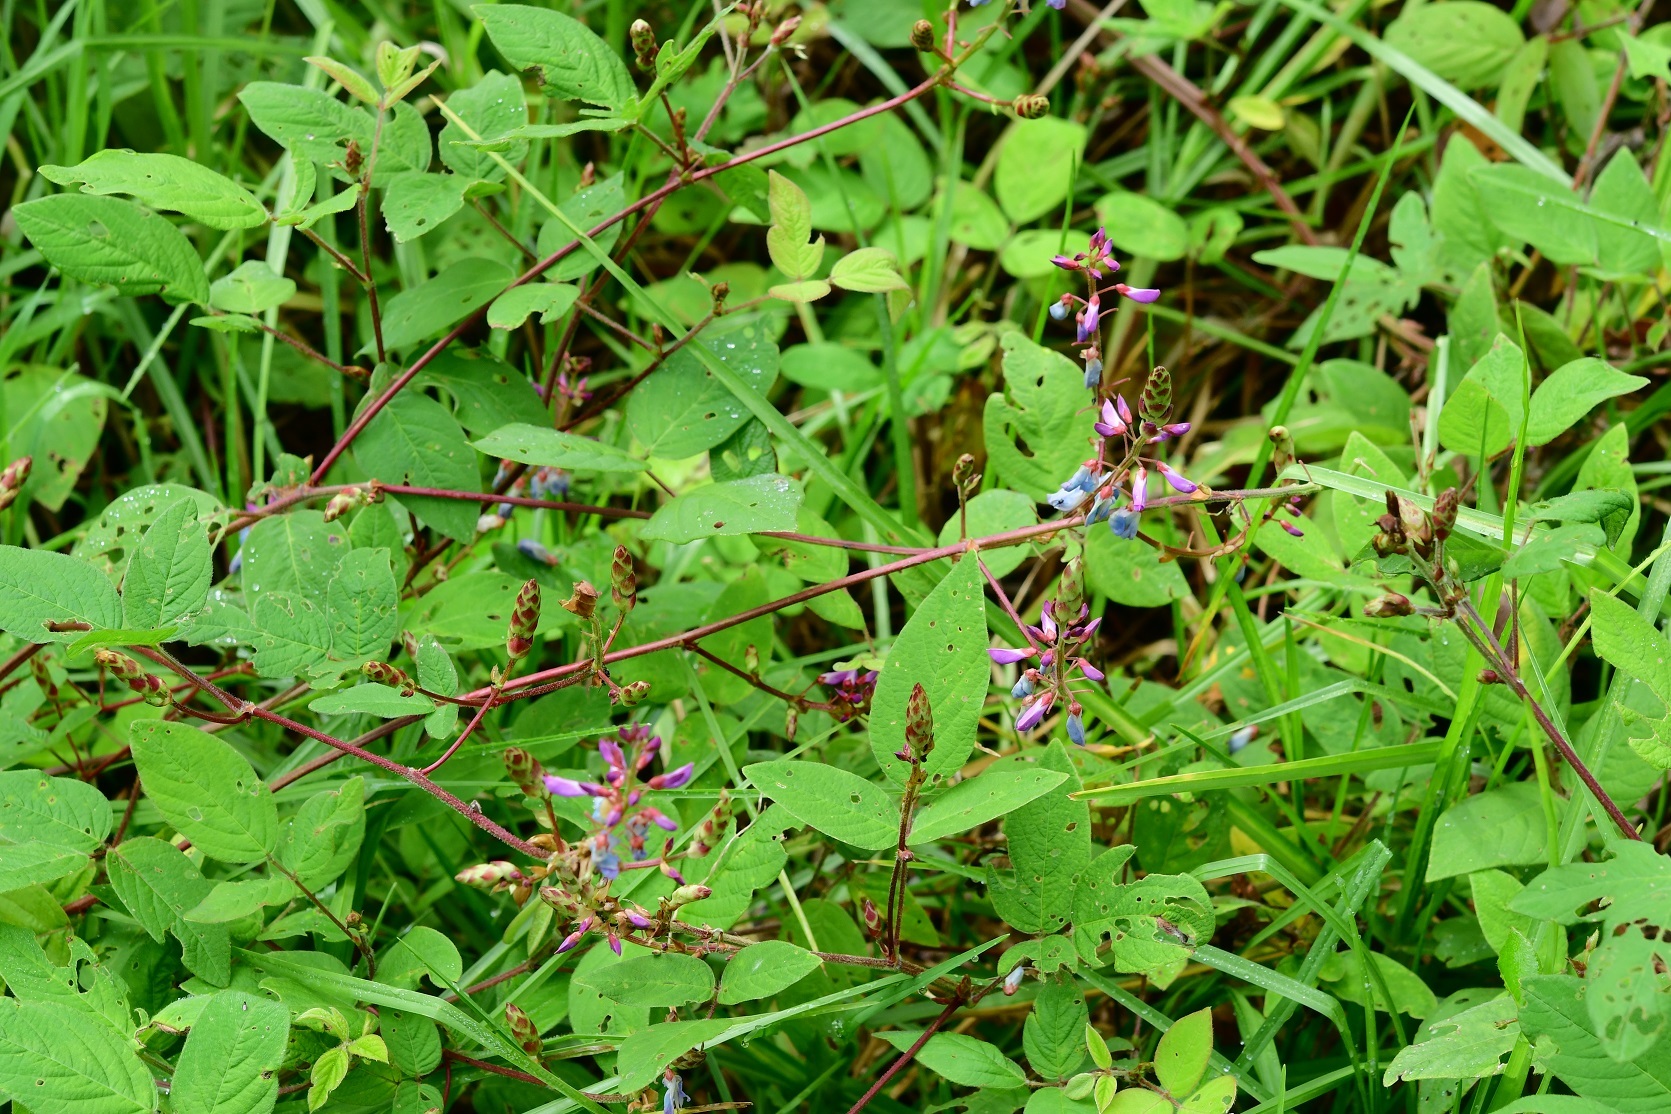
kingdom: Plantae
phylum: Tracheophyta
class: Magnoliopsida
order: Fabales
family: Fabaceae
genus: Desmodium
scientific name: Desmodium pringlei
